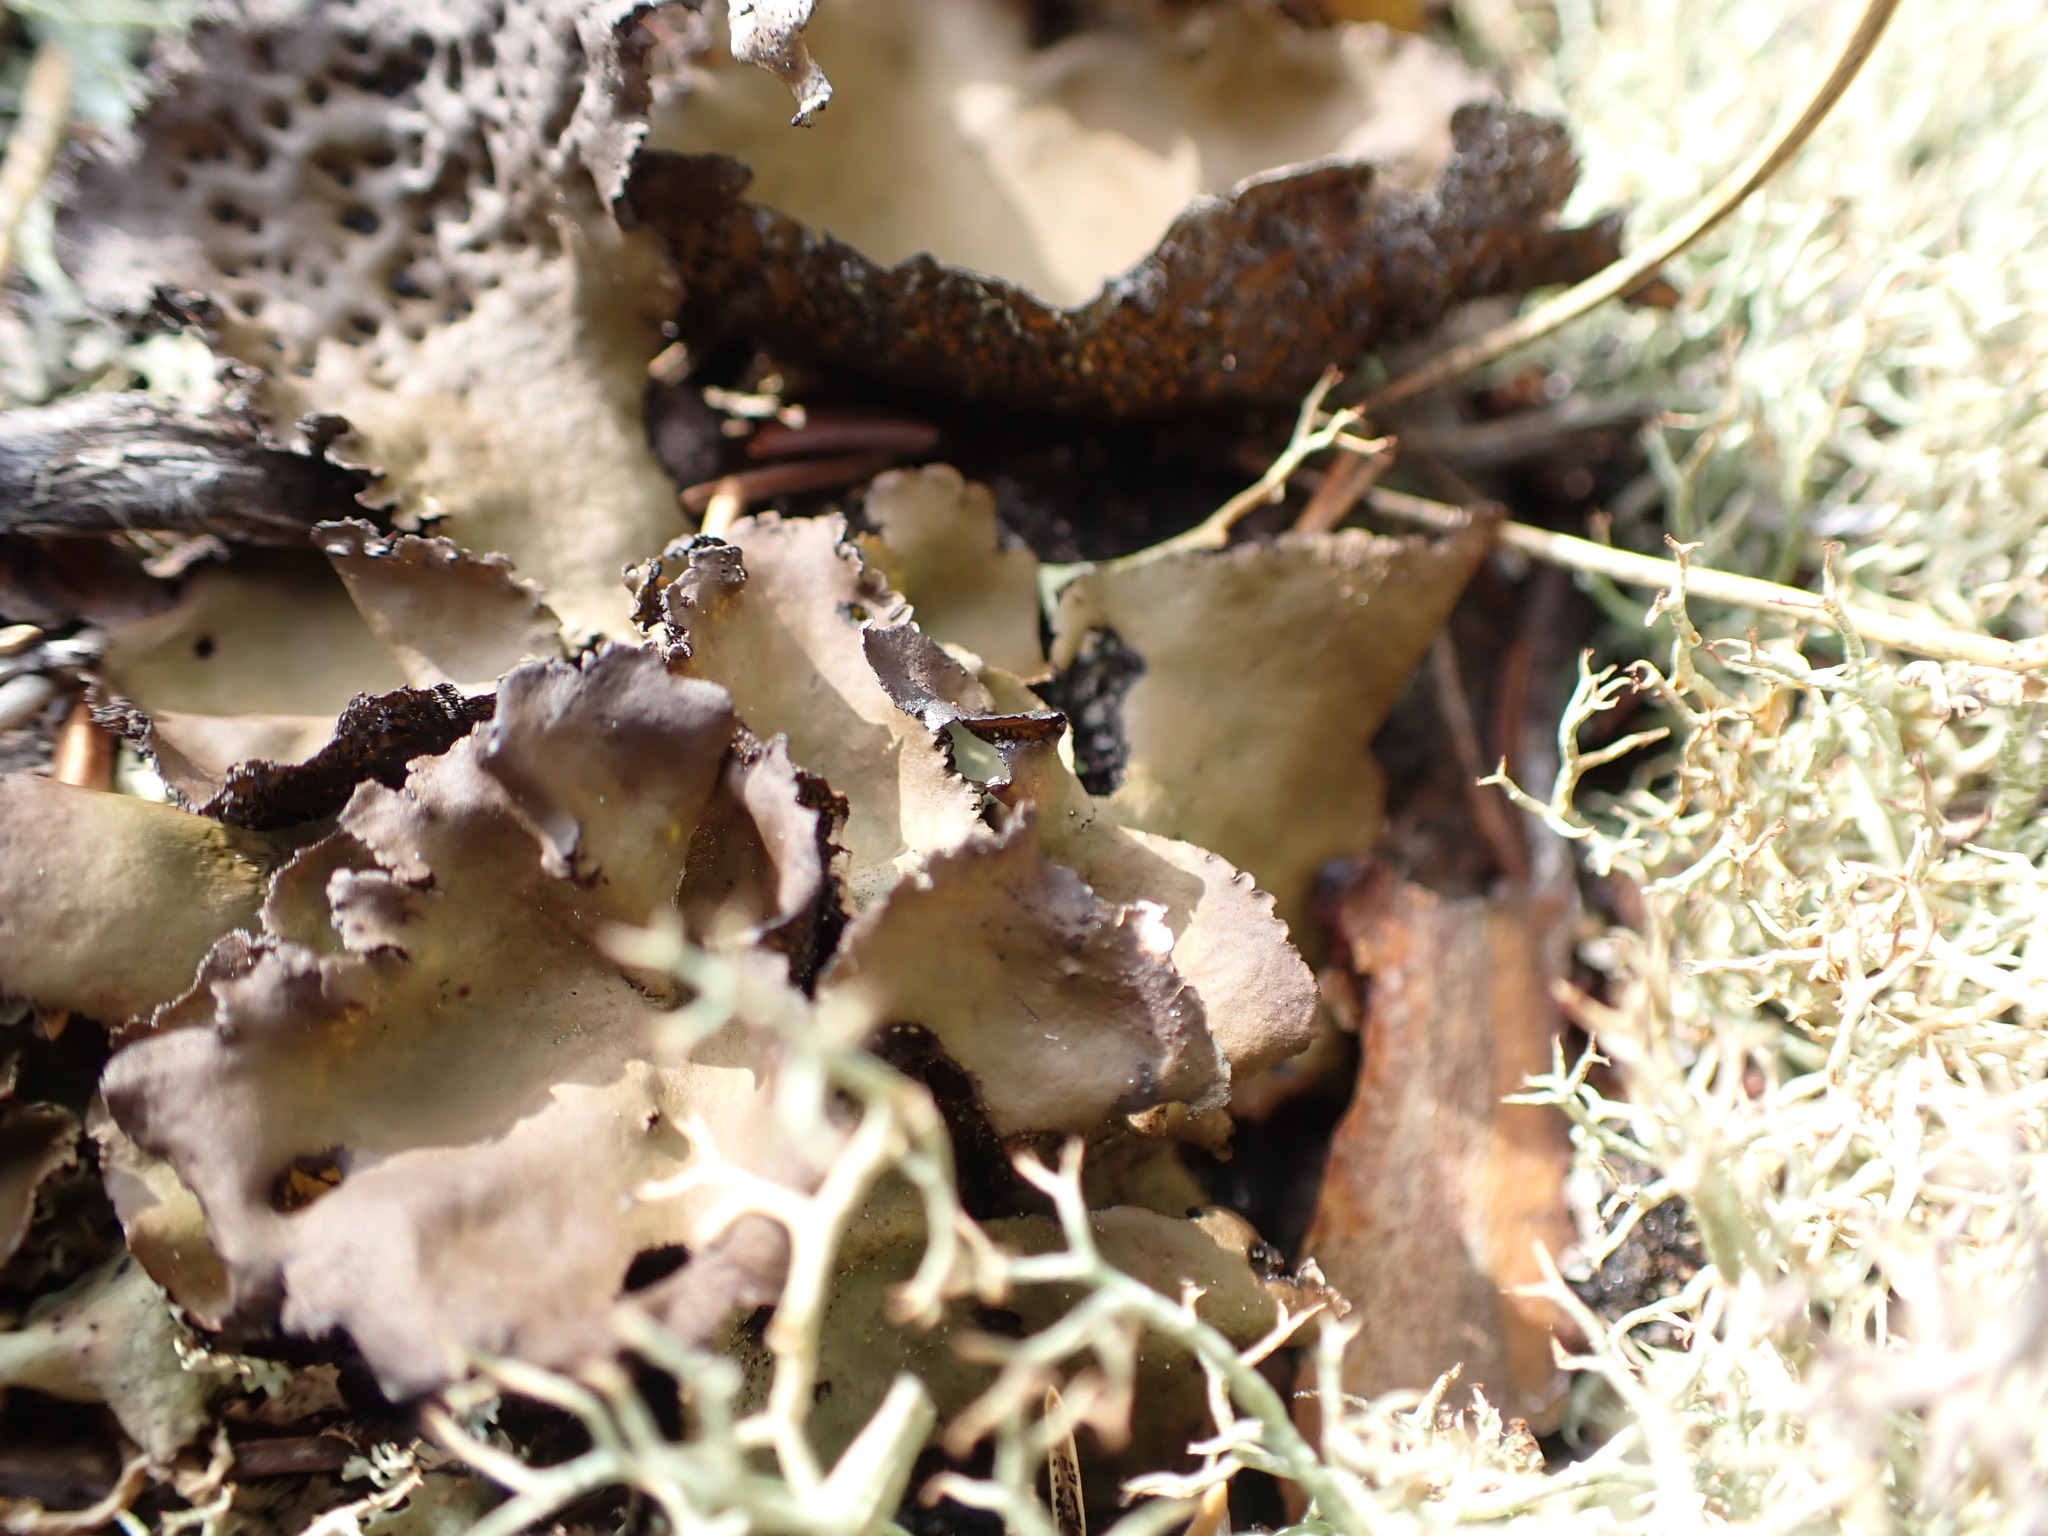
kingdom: Fungi
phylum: Ascomycota
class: Lecanoromycetes
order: Umbilicariales
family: Umbilicariaceae
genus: Umbilicaria
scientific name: Umbilicaria muhlenbergii
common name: Lesser rocktripe
